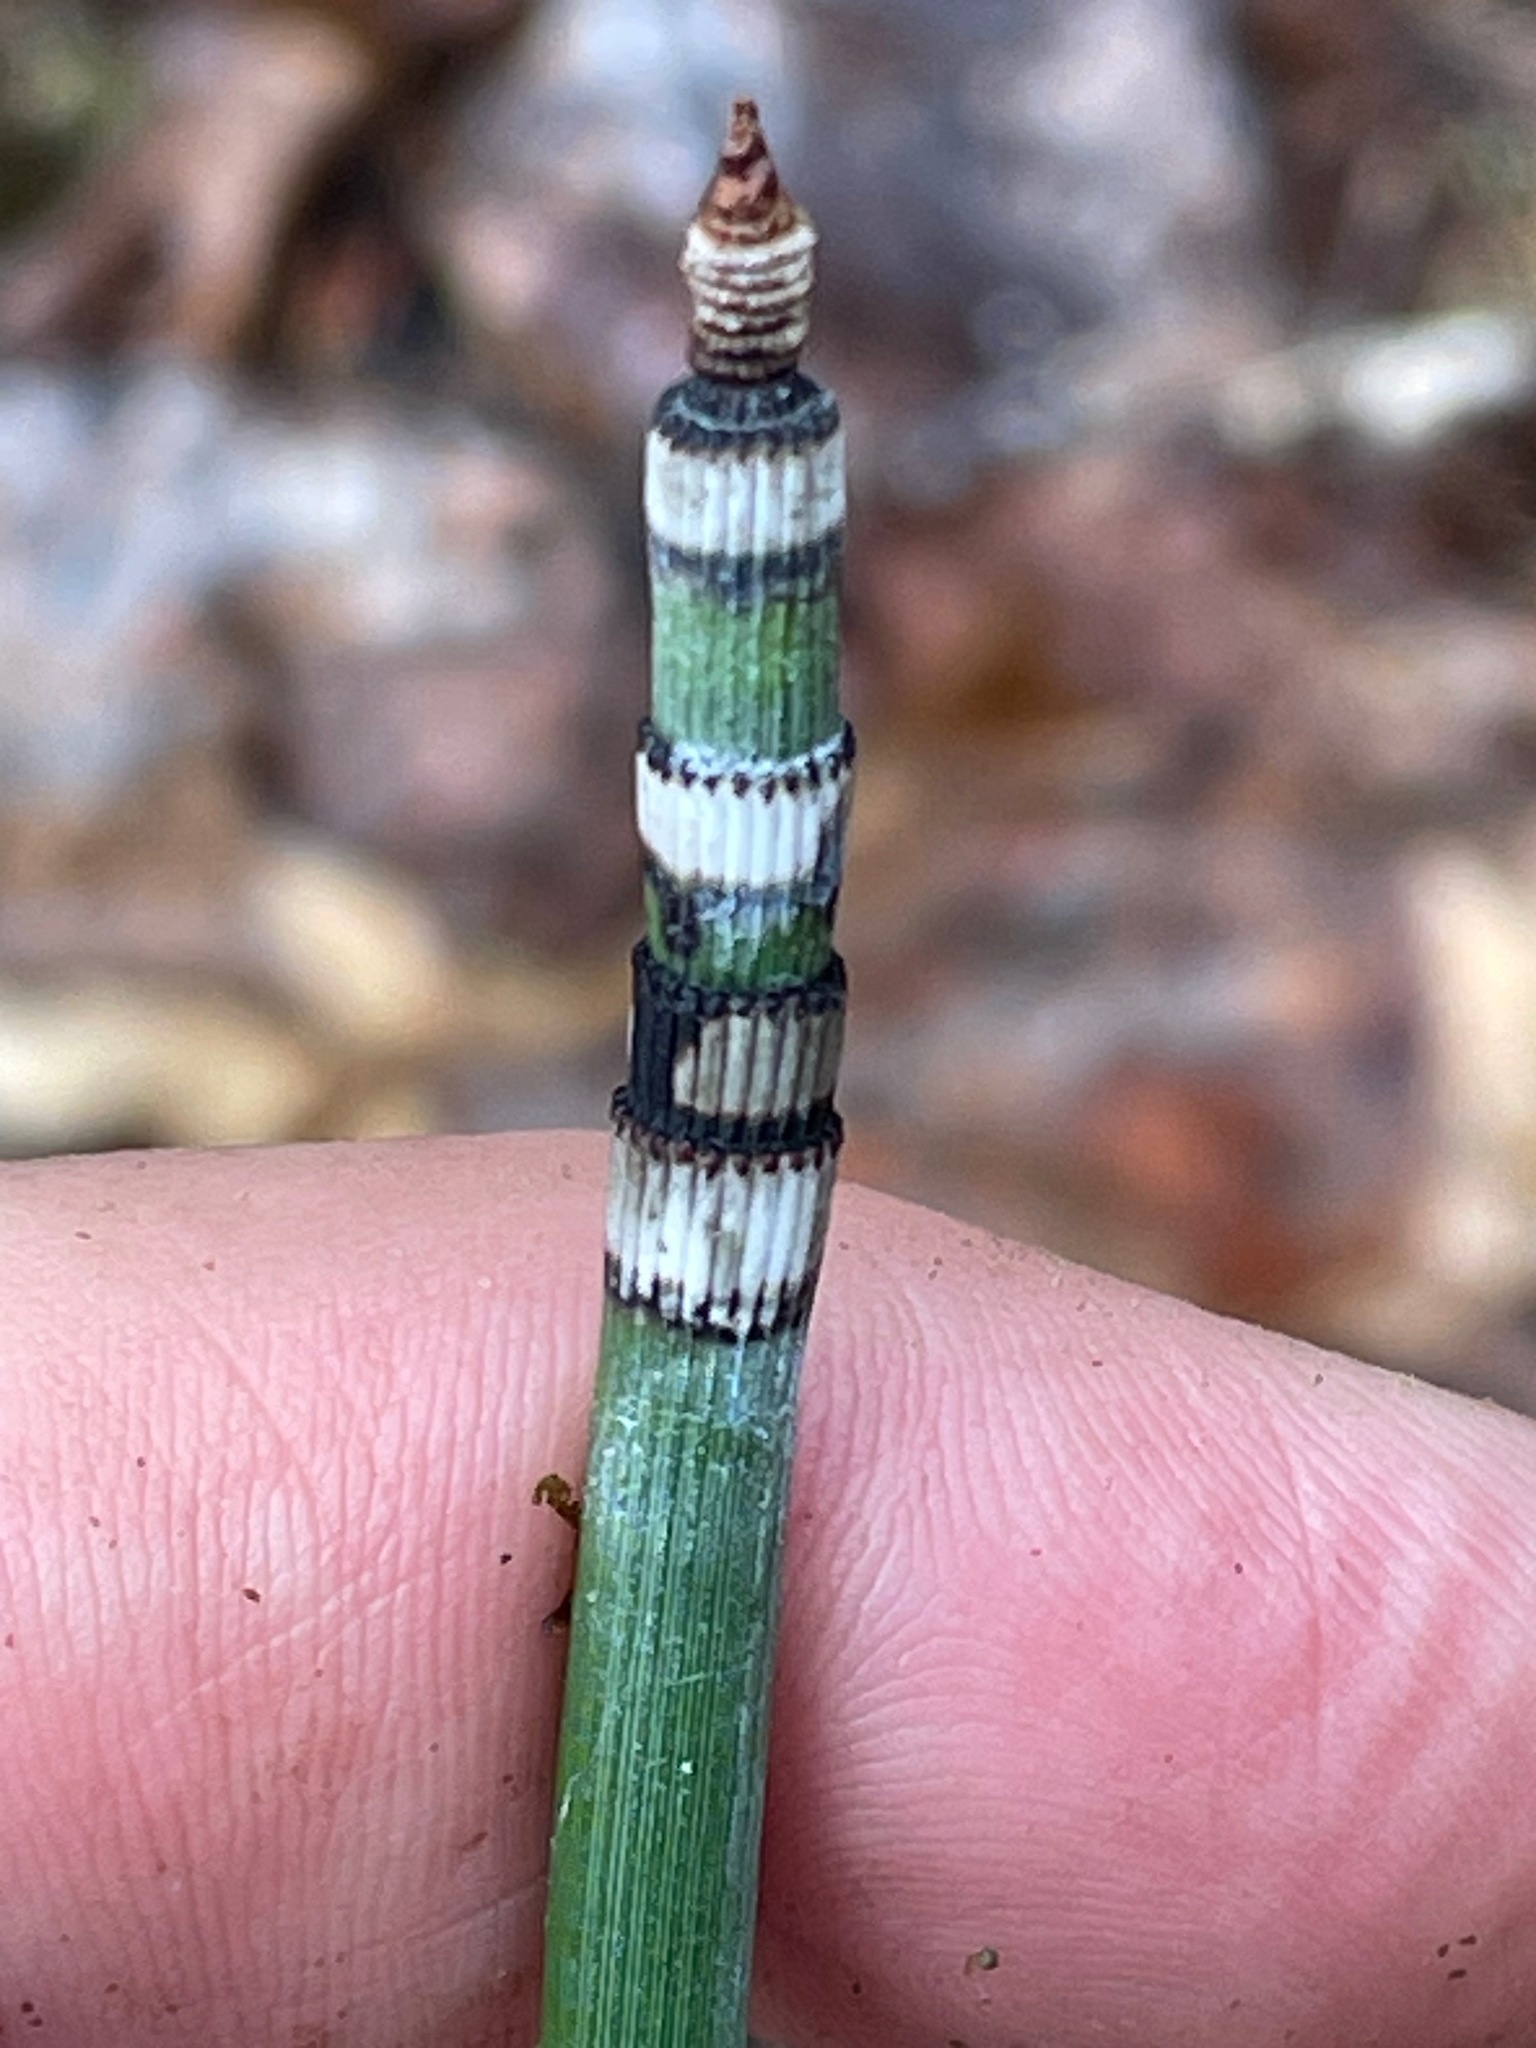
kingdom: Plantae
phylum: Tracheophyta
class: Polypodiopsida
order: Equisetales
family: Equisetaceae
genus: Equisetum
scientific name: Equisetum hyemale
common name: Rough horsetail
